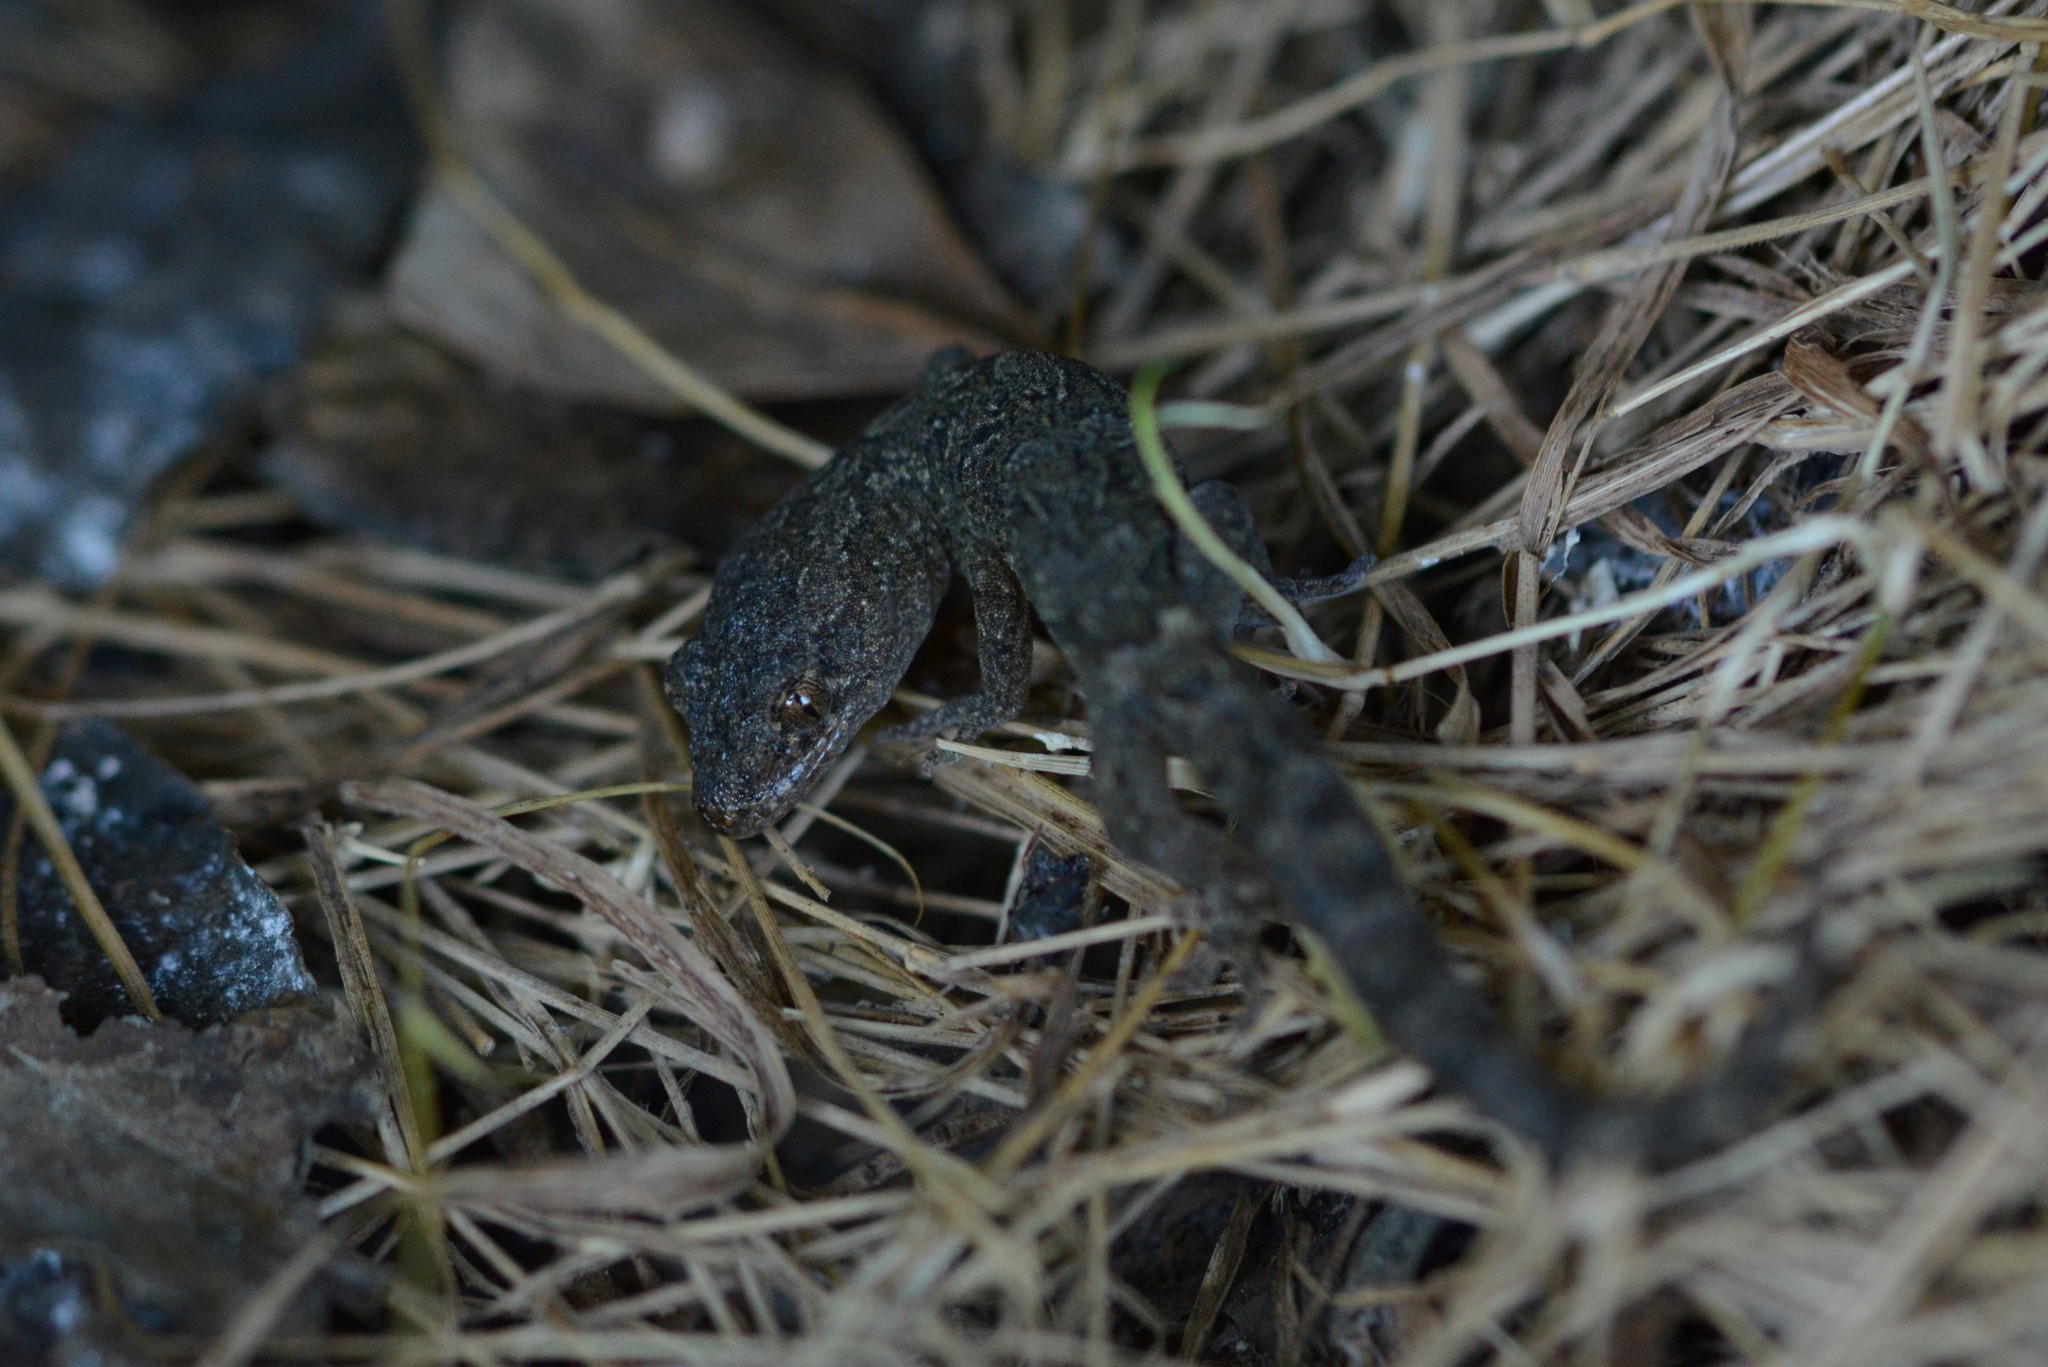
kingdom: Animalia
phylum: Chordata
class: Squamata
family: Diplodactylidae
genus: Woodworthia
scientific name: Woodworthia maculata
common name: Raukawa gecko
